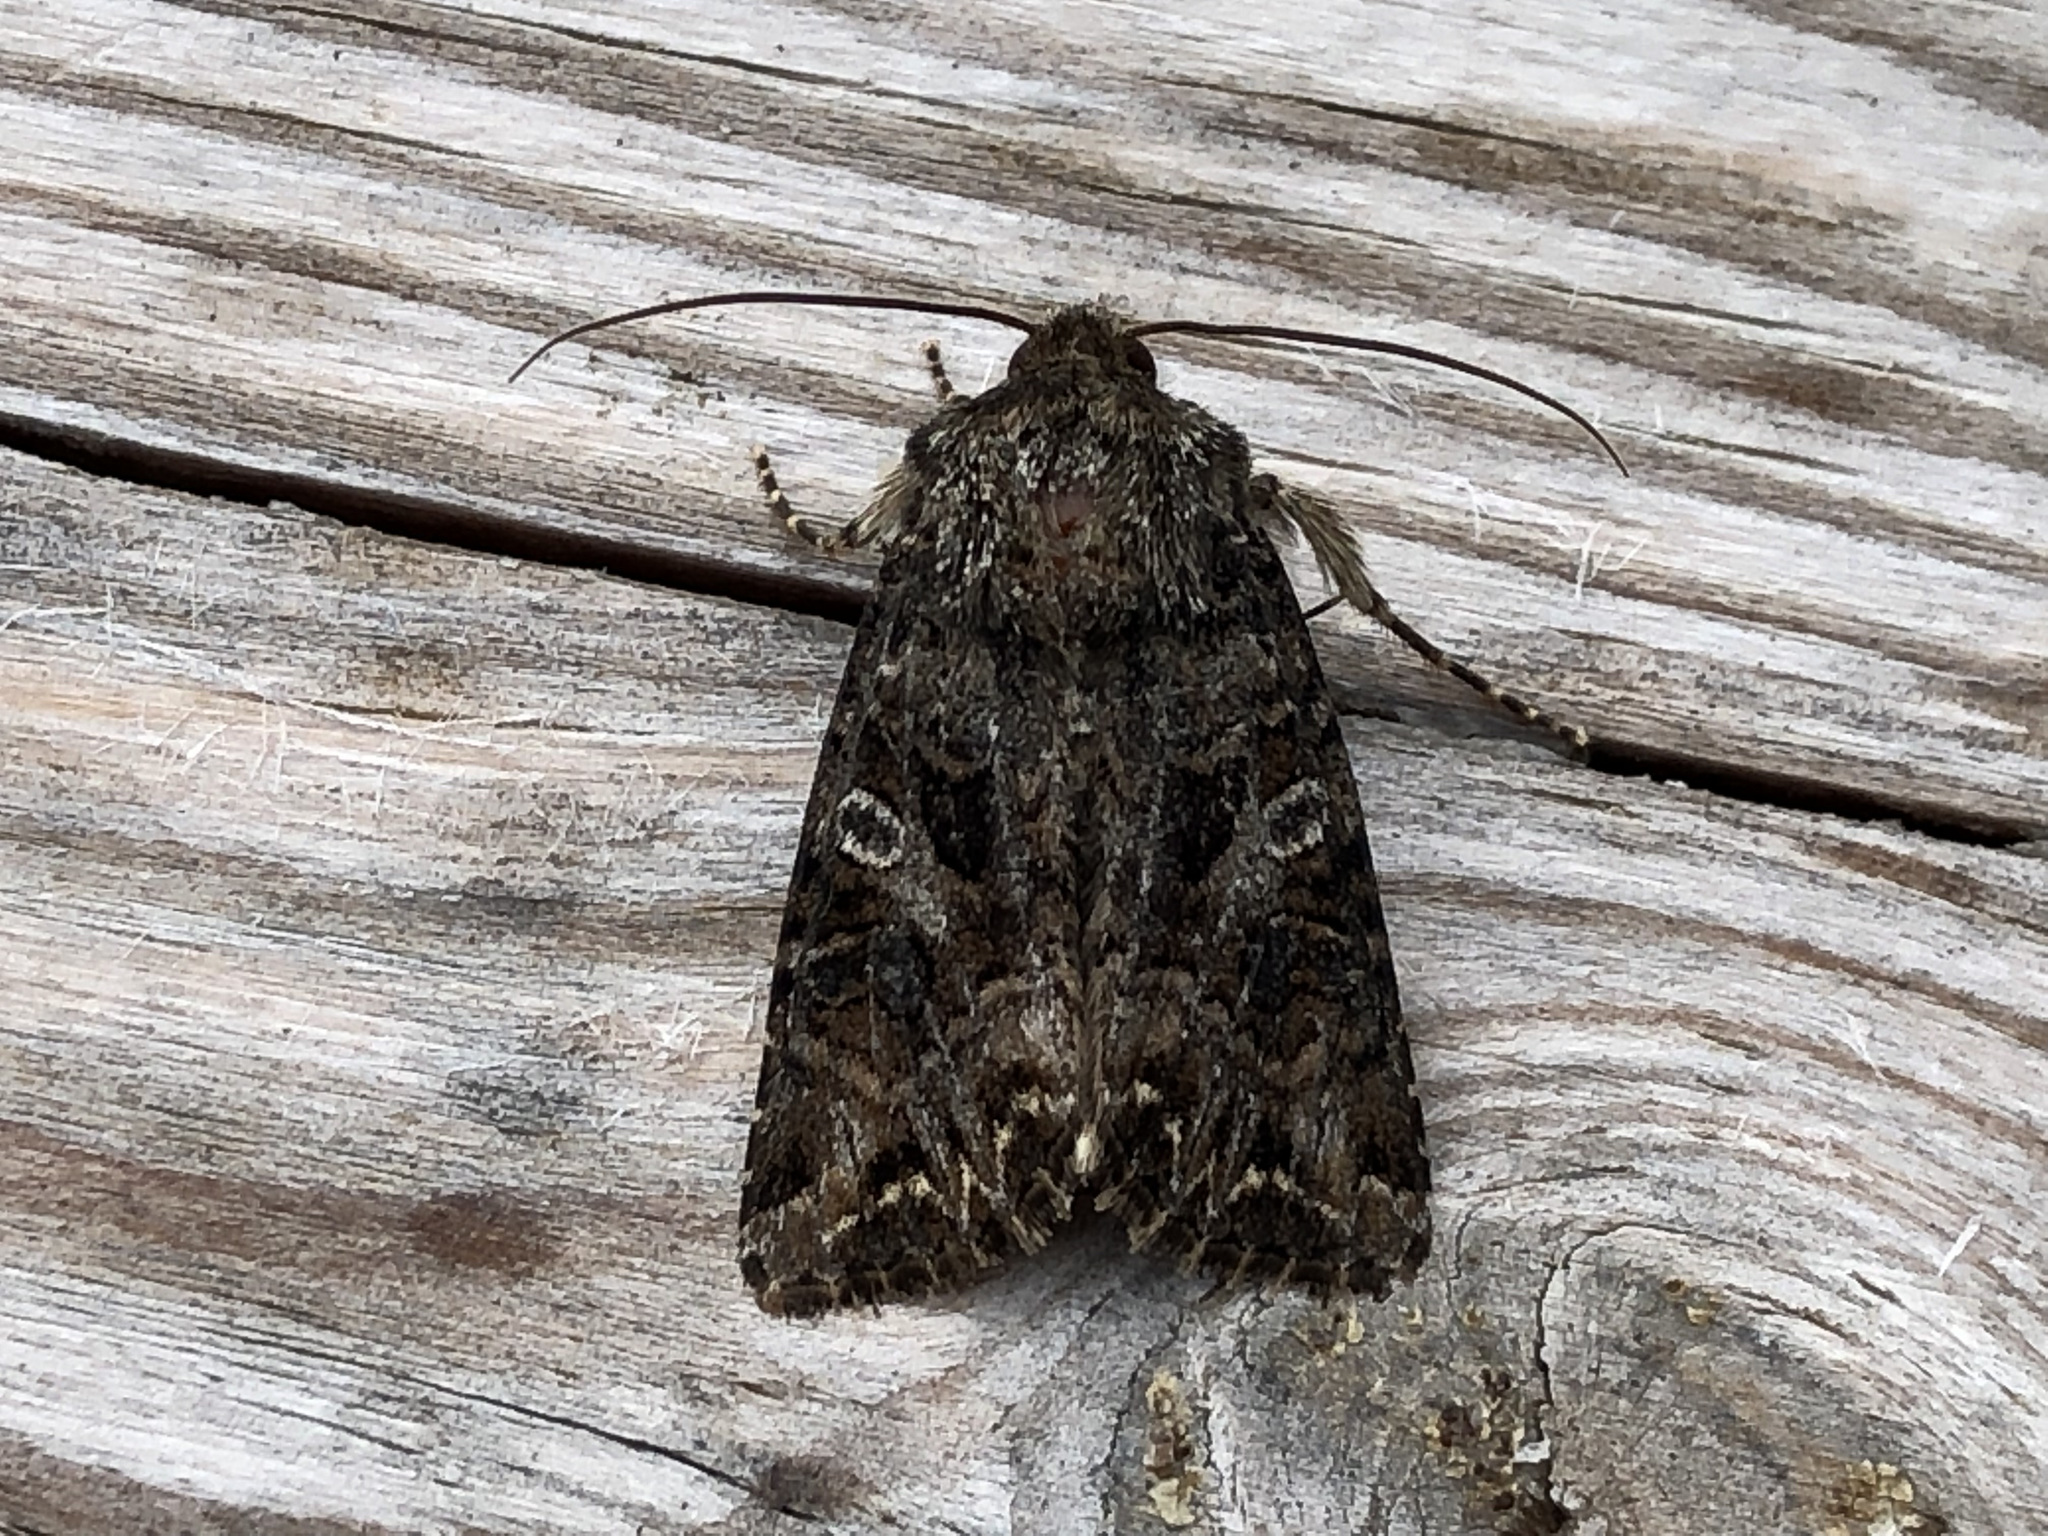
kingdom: Animalia
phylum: Arthropoda
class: Insecta
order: Lepidoptera
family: Noctuidae
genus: Anarta
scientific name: Anarta odontites
